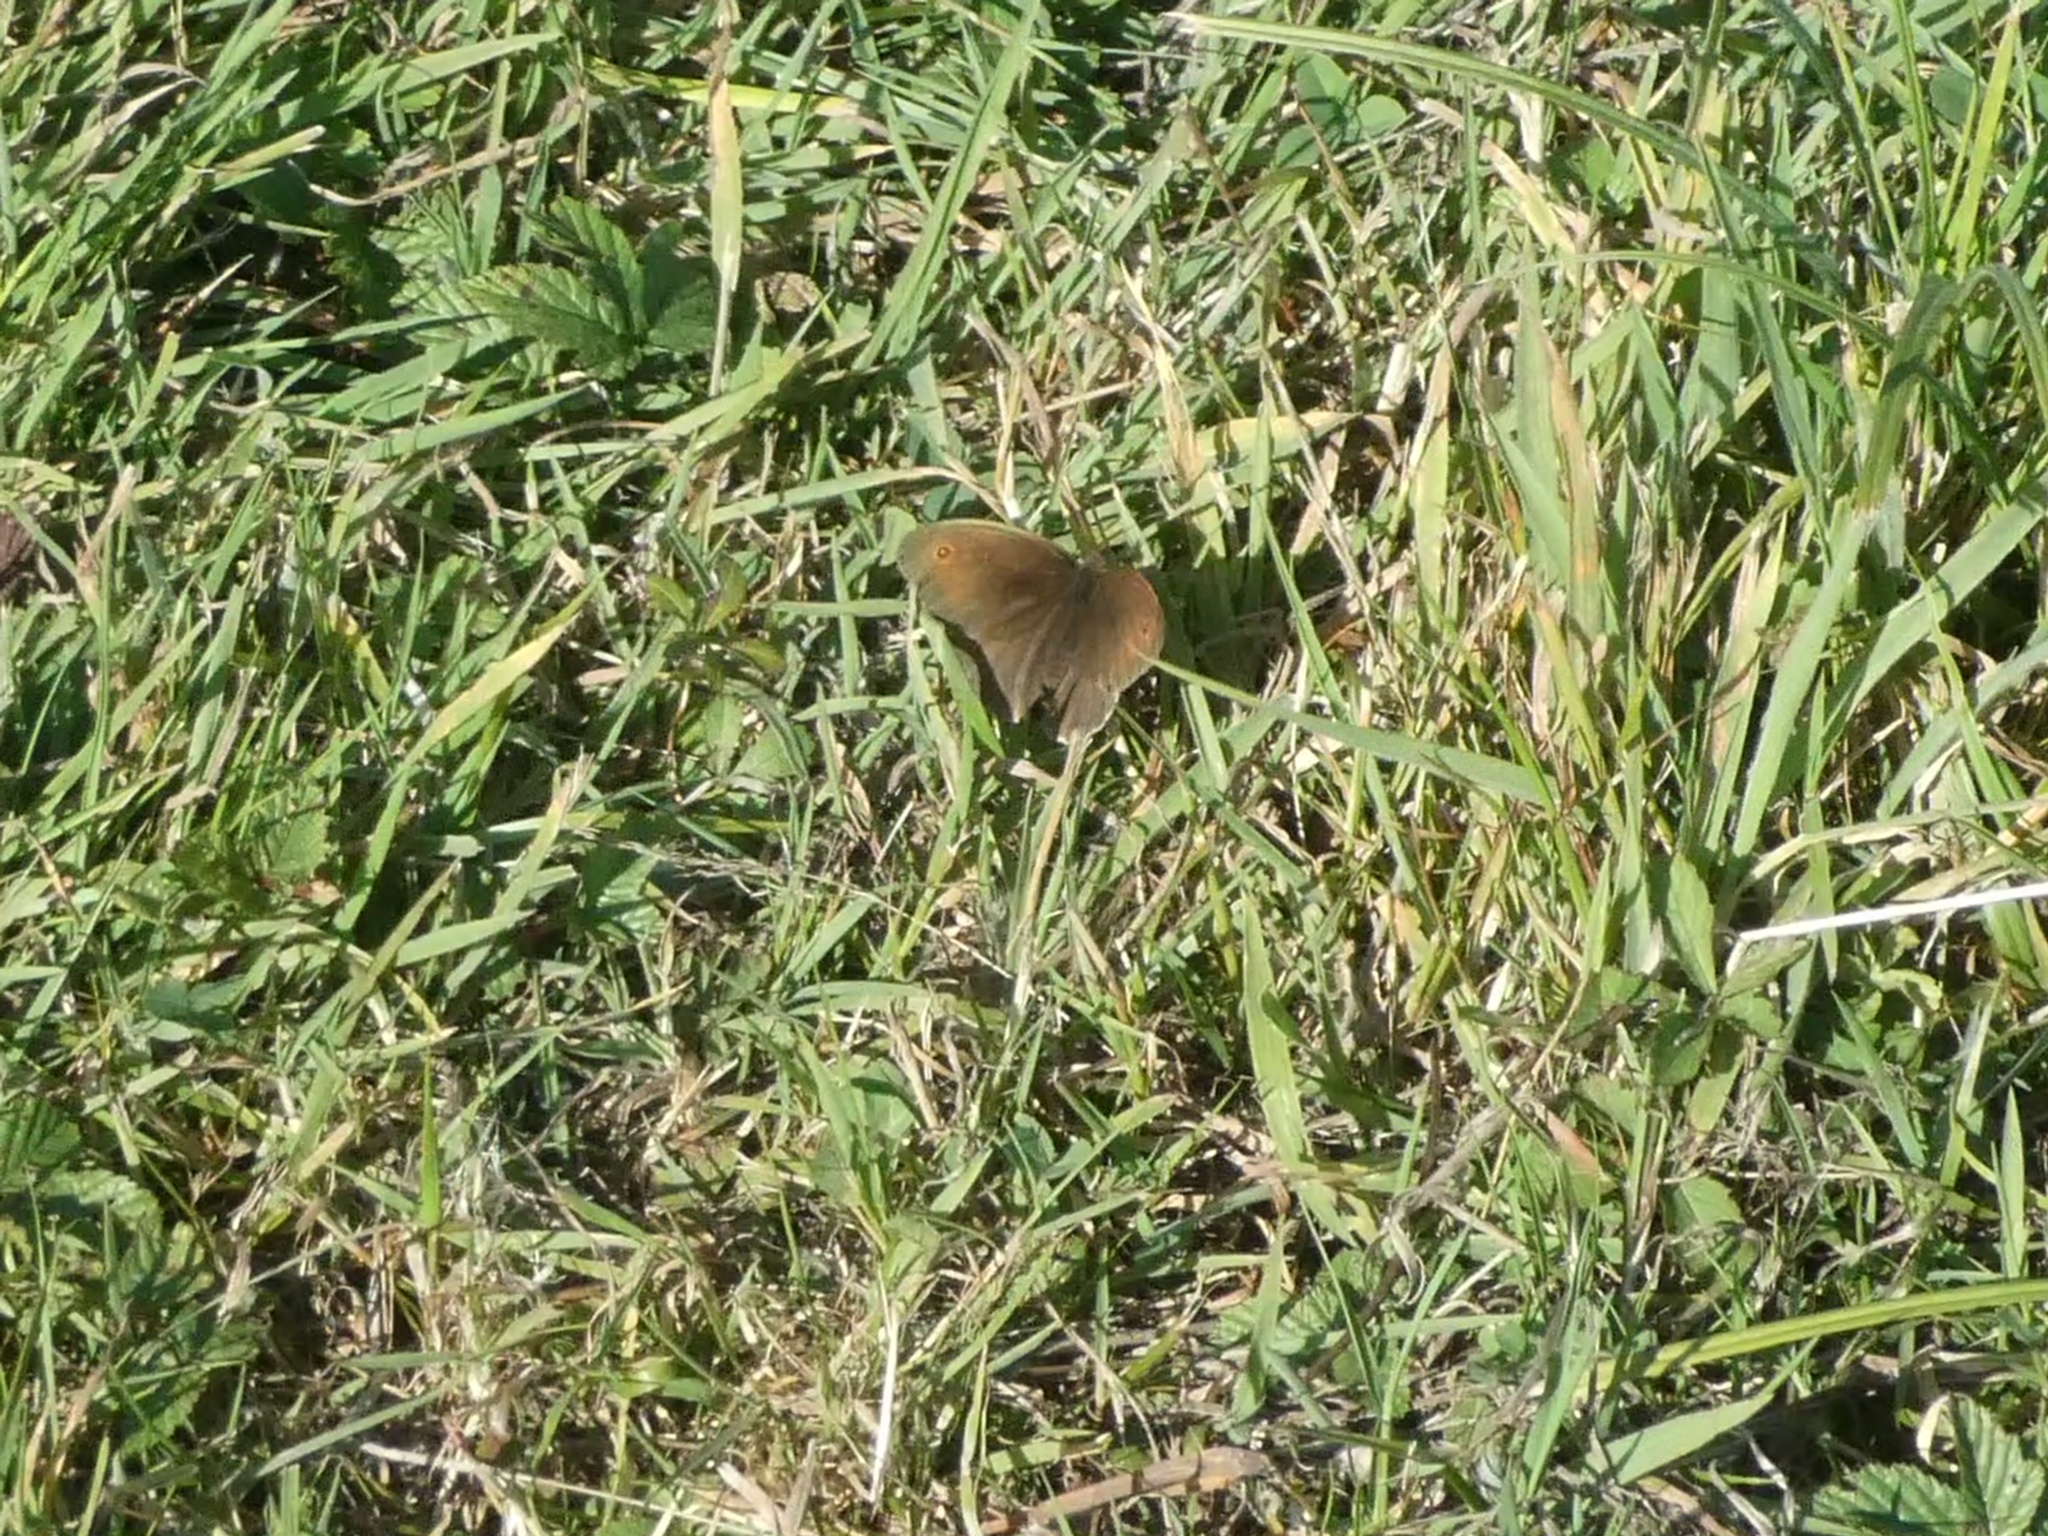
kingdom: Animalia
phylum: Arthropoda
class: Insecta
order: Lepidoptera
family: Nymphalidae
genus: Maniola
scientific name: Maniola jurtina
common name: Meadow brown
